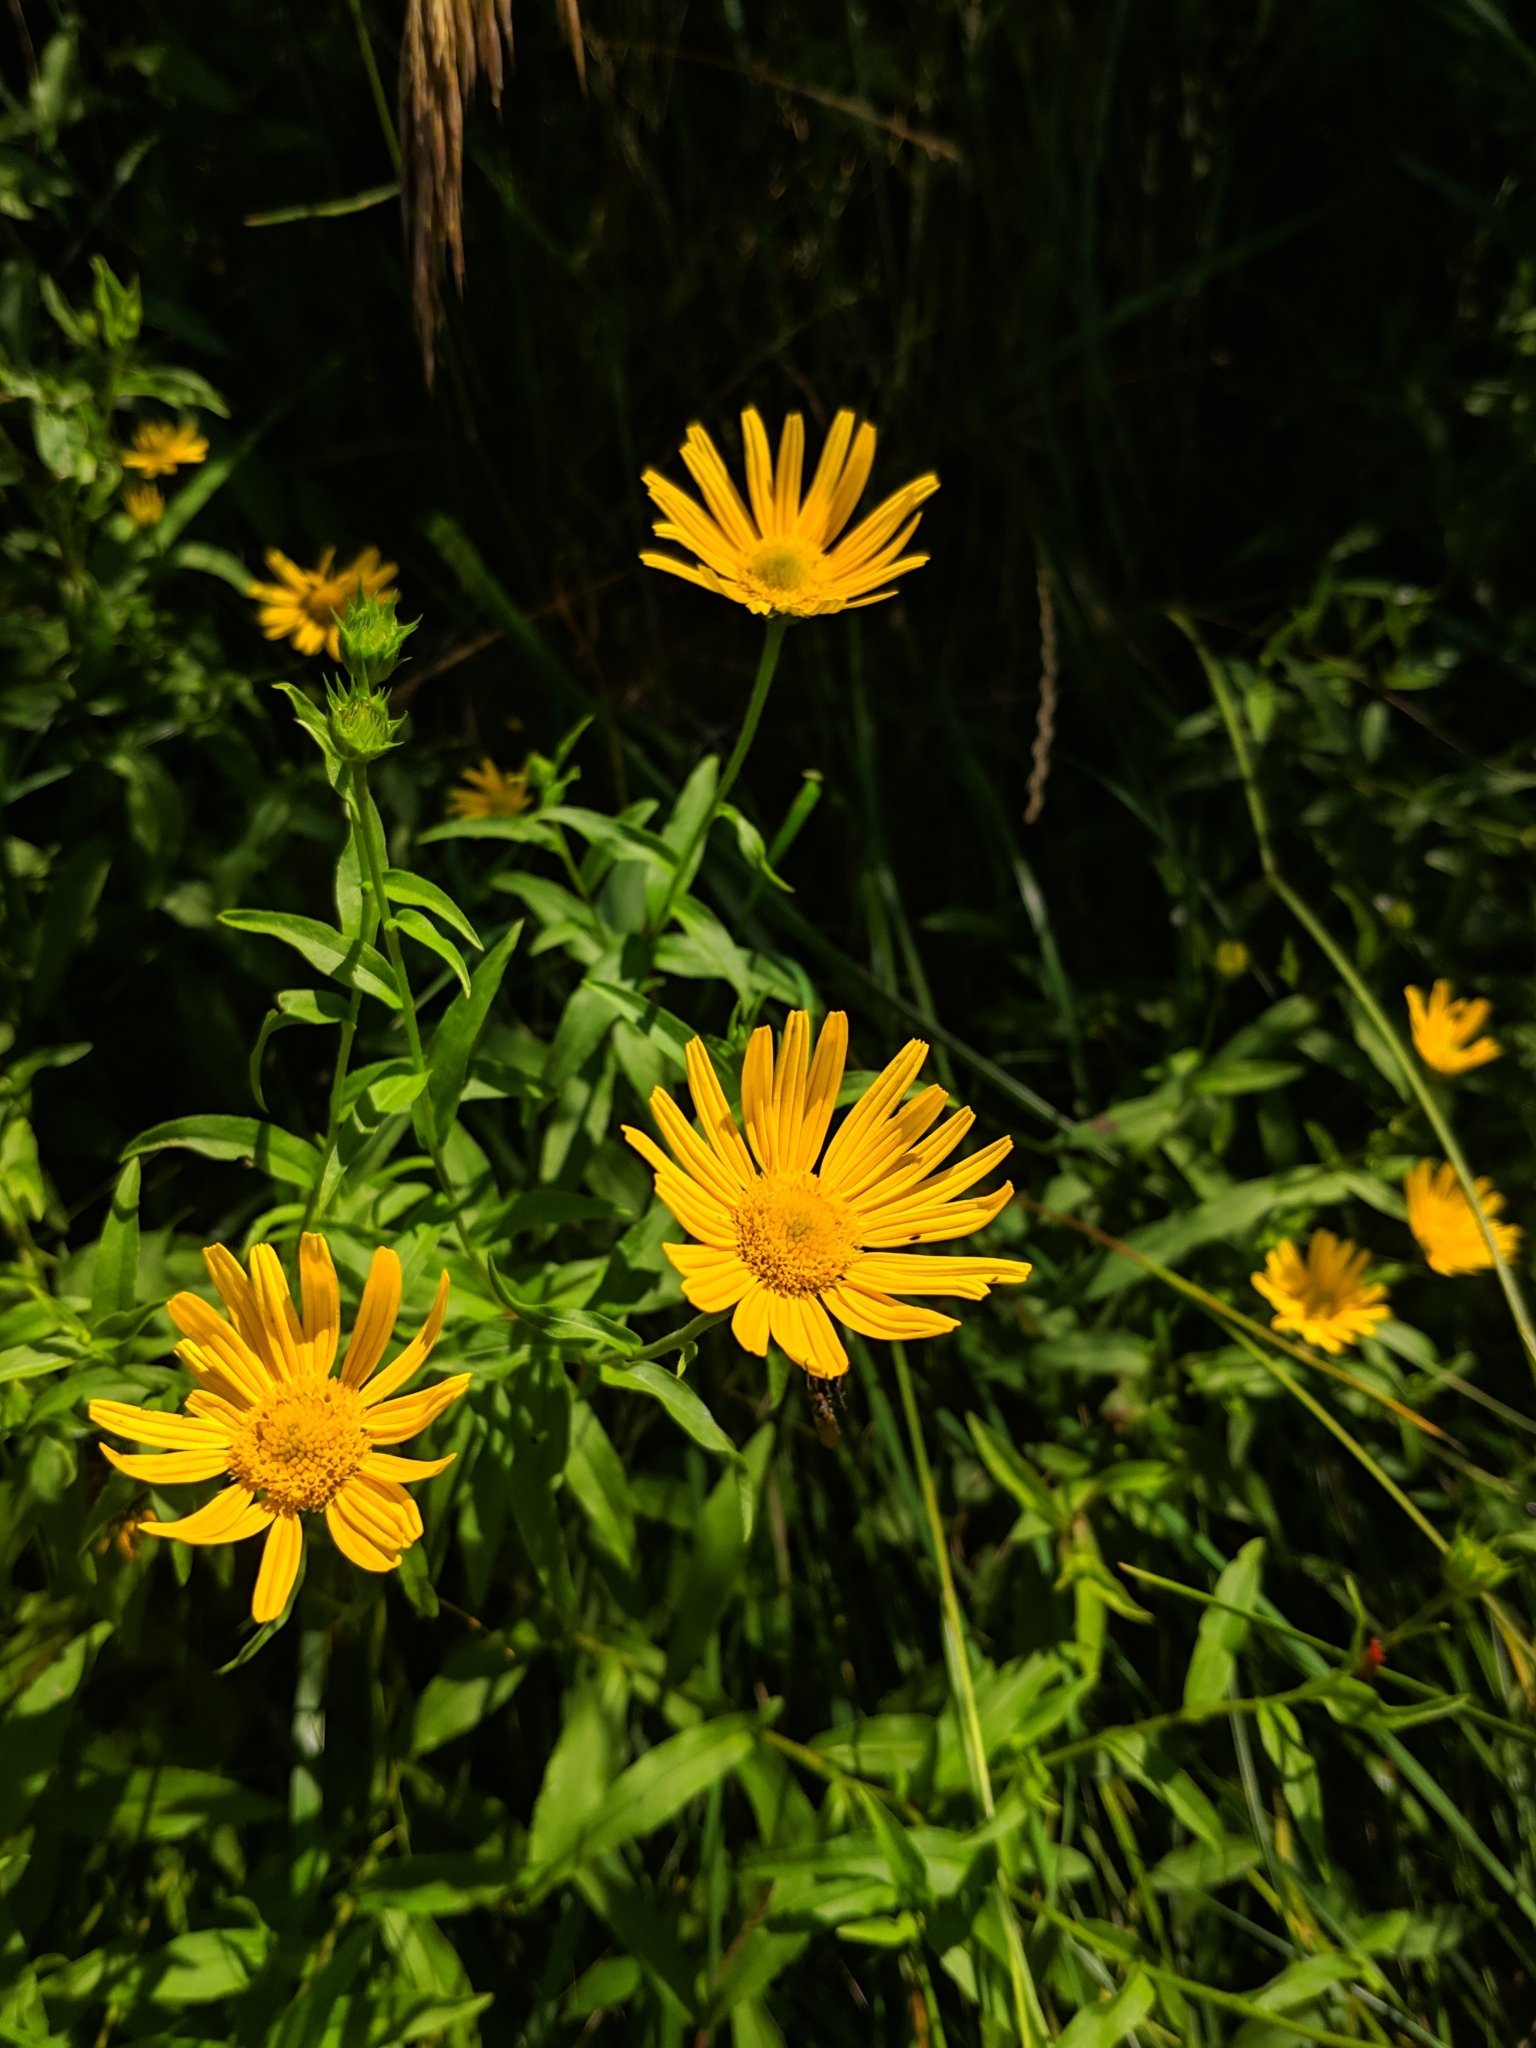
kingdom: Plantae
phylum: Tracheophyta
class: Magnoliopsida
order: Asterales
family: Asteraceae
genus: Buphthalmum
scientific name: Buphthalmum salicifolium
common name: Willow-leaved yellow-oxeye
